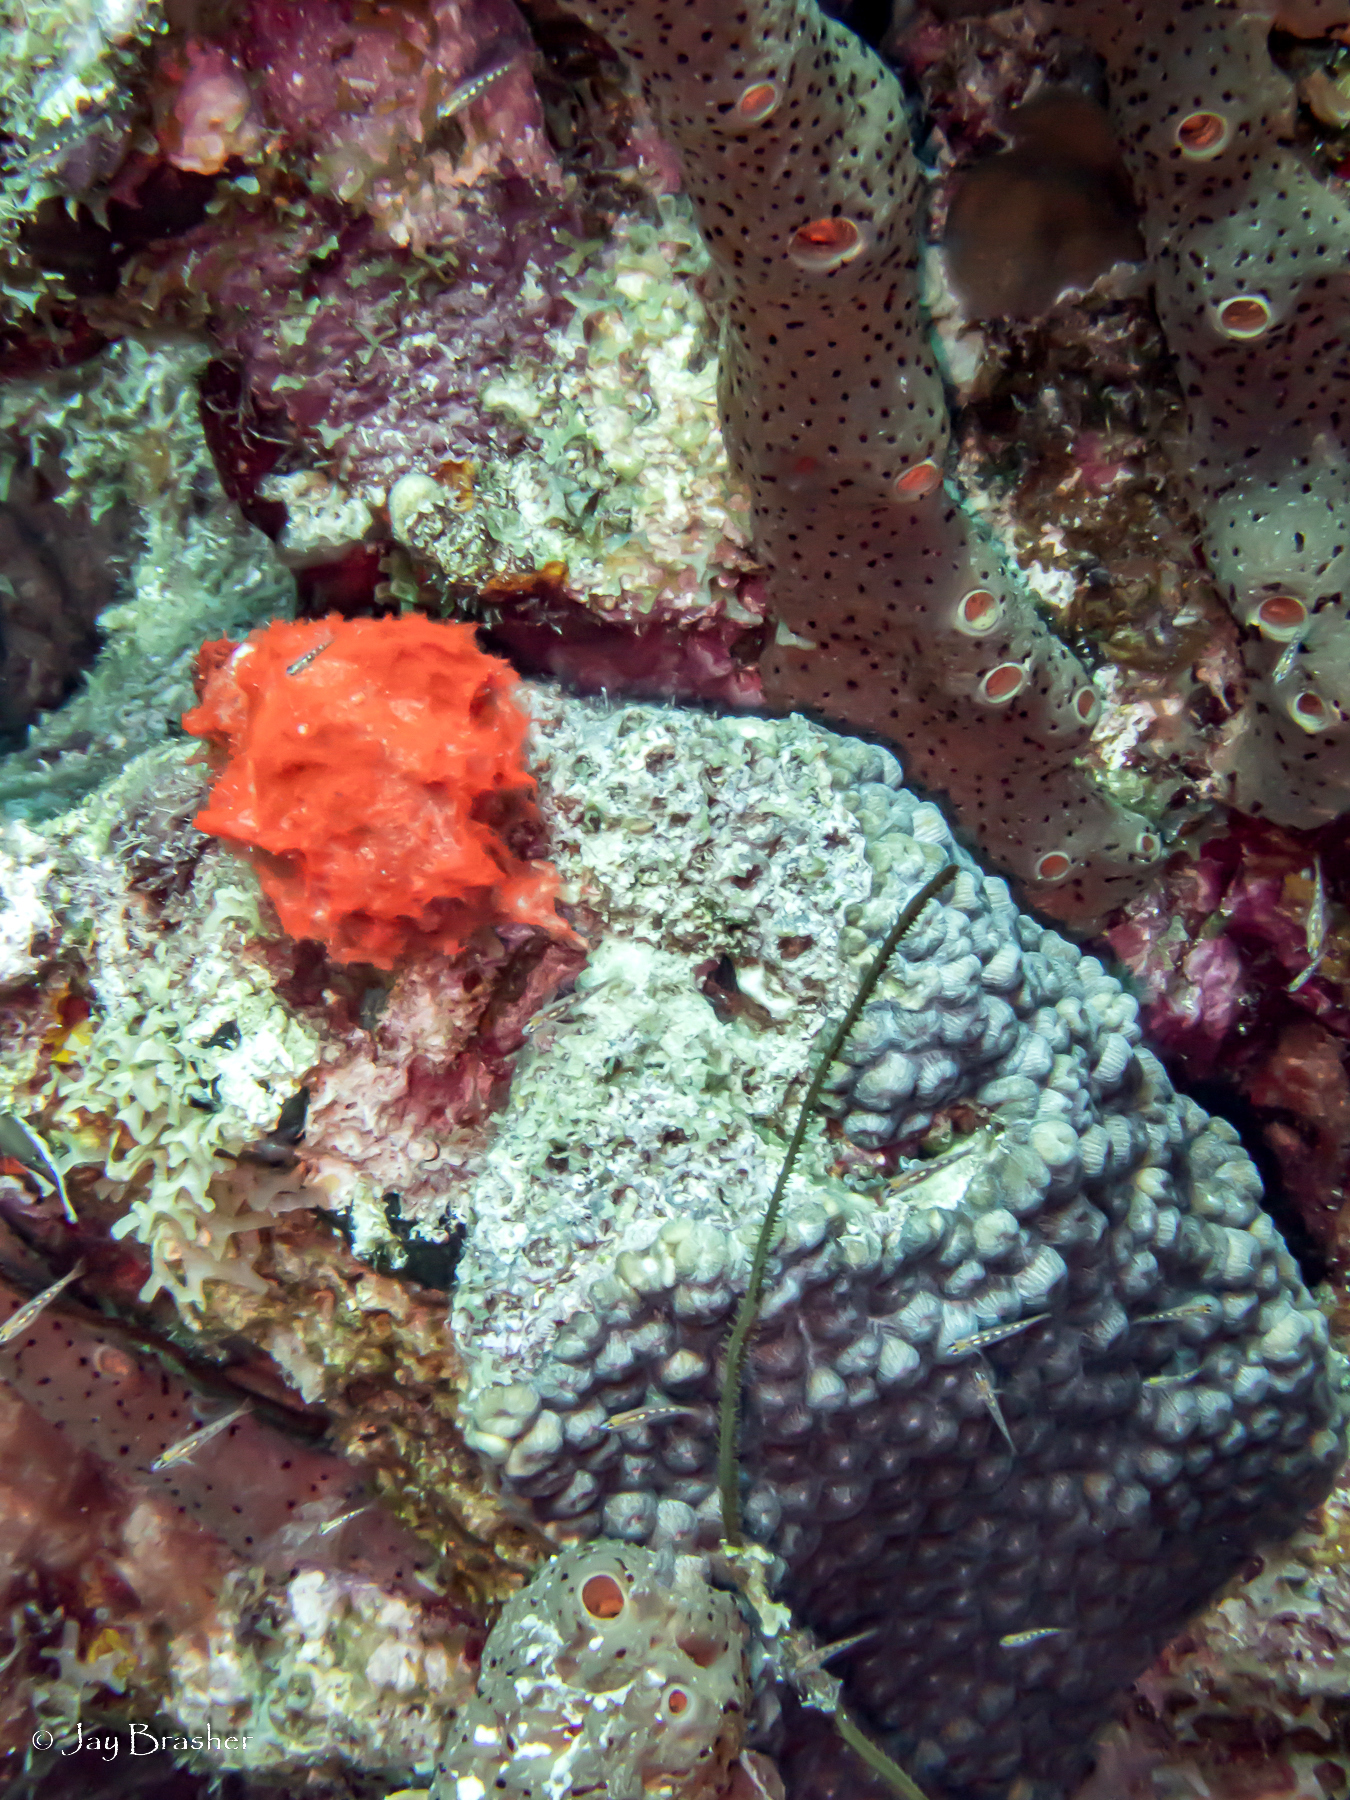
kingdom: Animalia
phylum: Porifera
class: Demospongiae
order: Agelasida
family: Agelasidae
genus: Agelas
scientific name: Agelas conifera
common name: Brown tube sponge
